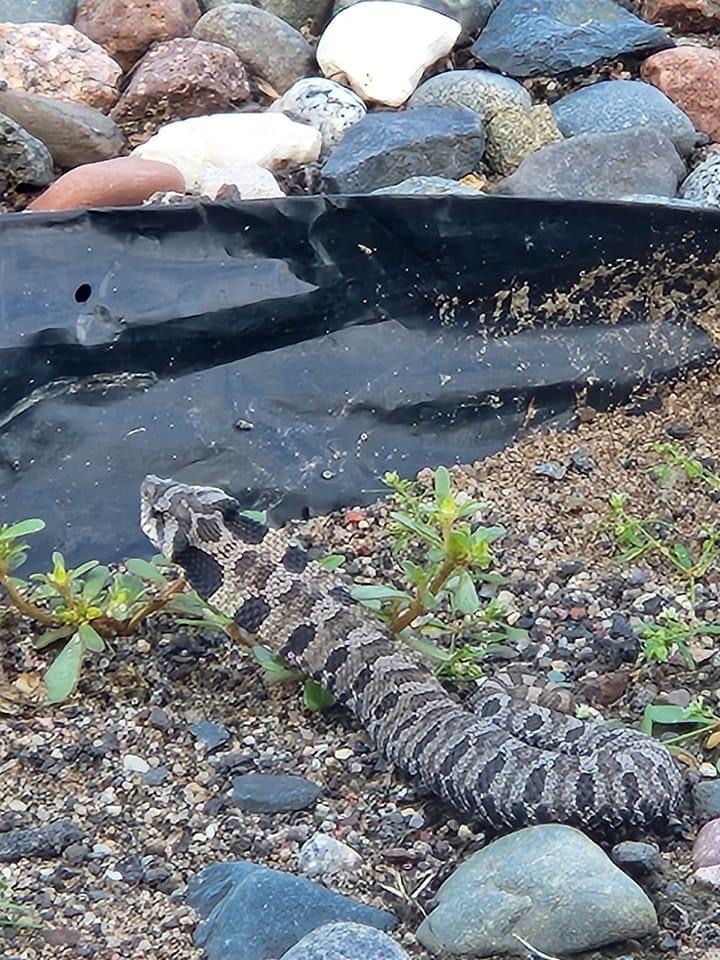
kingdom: Animalia
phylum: Chordata
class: Squamata
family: Colubridae
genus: Heterodon
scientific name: Heterodon platirhinos
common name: Eastern hognose snake
